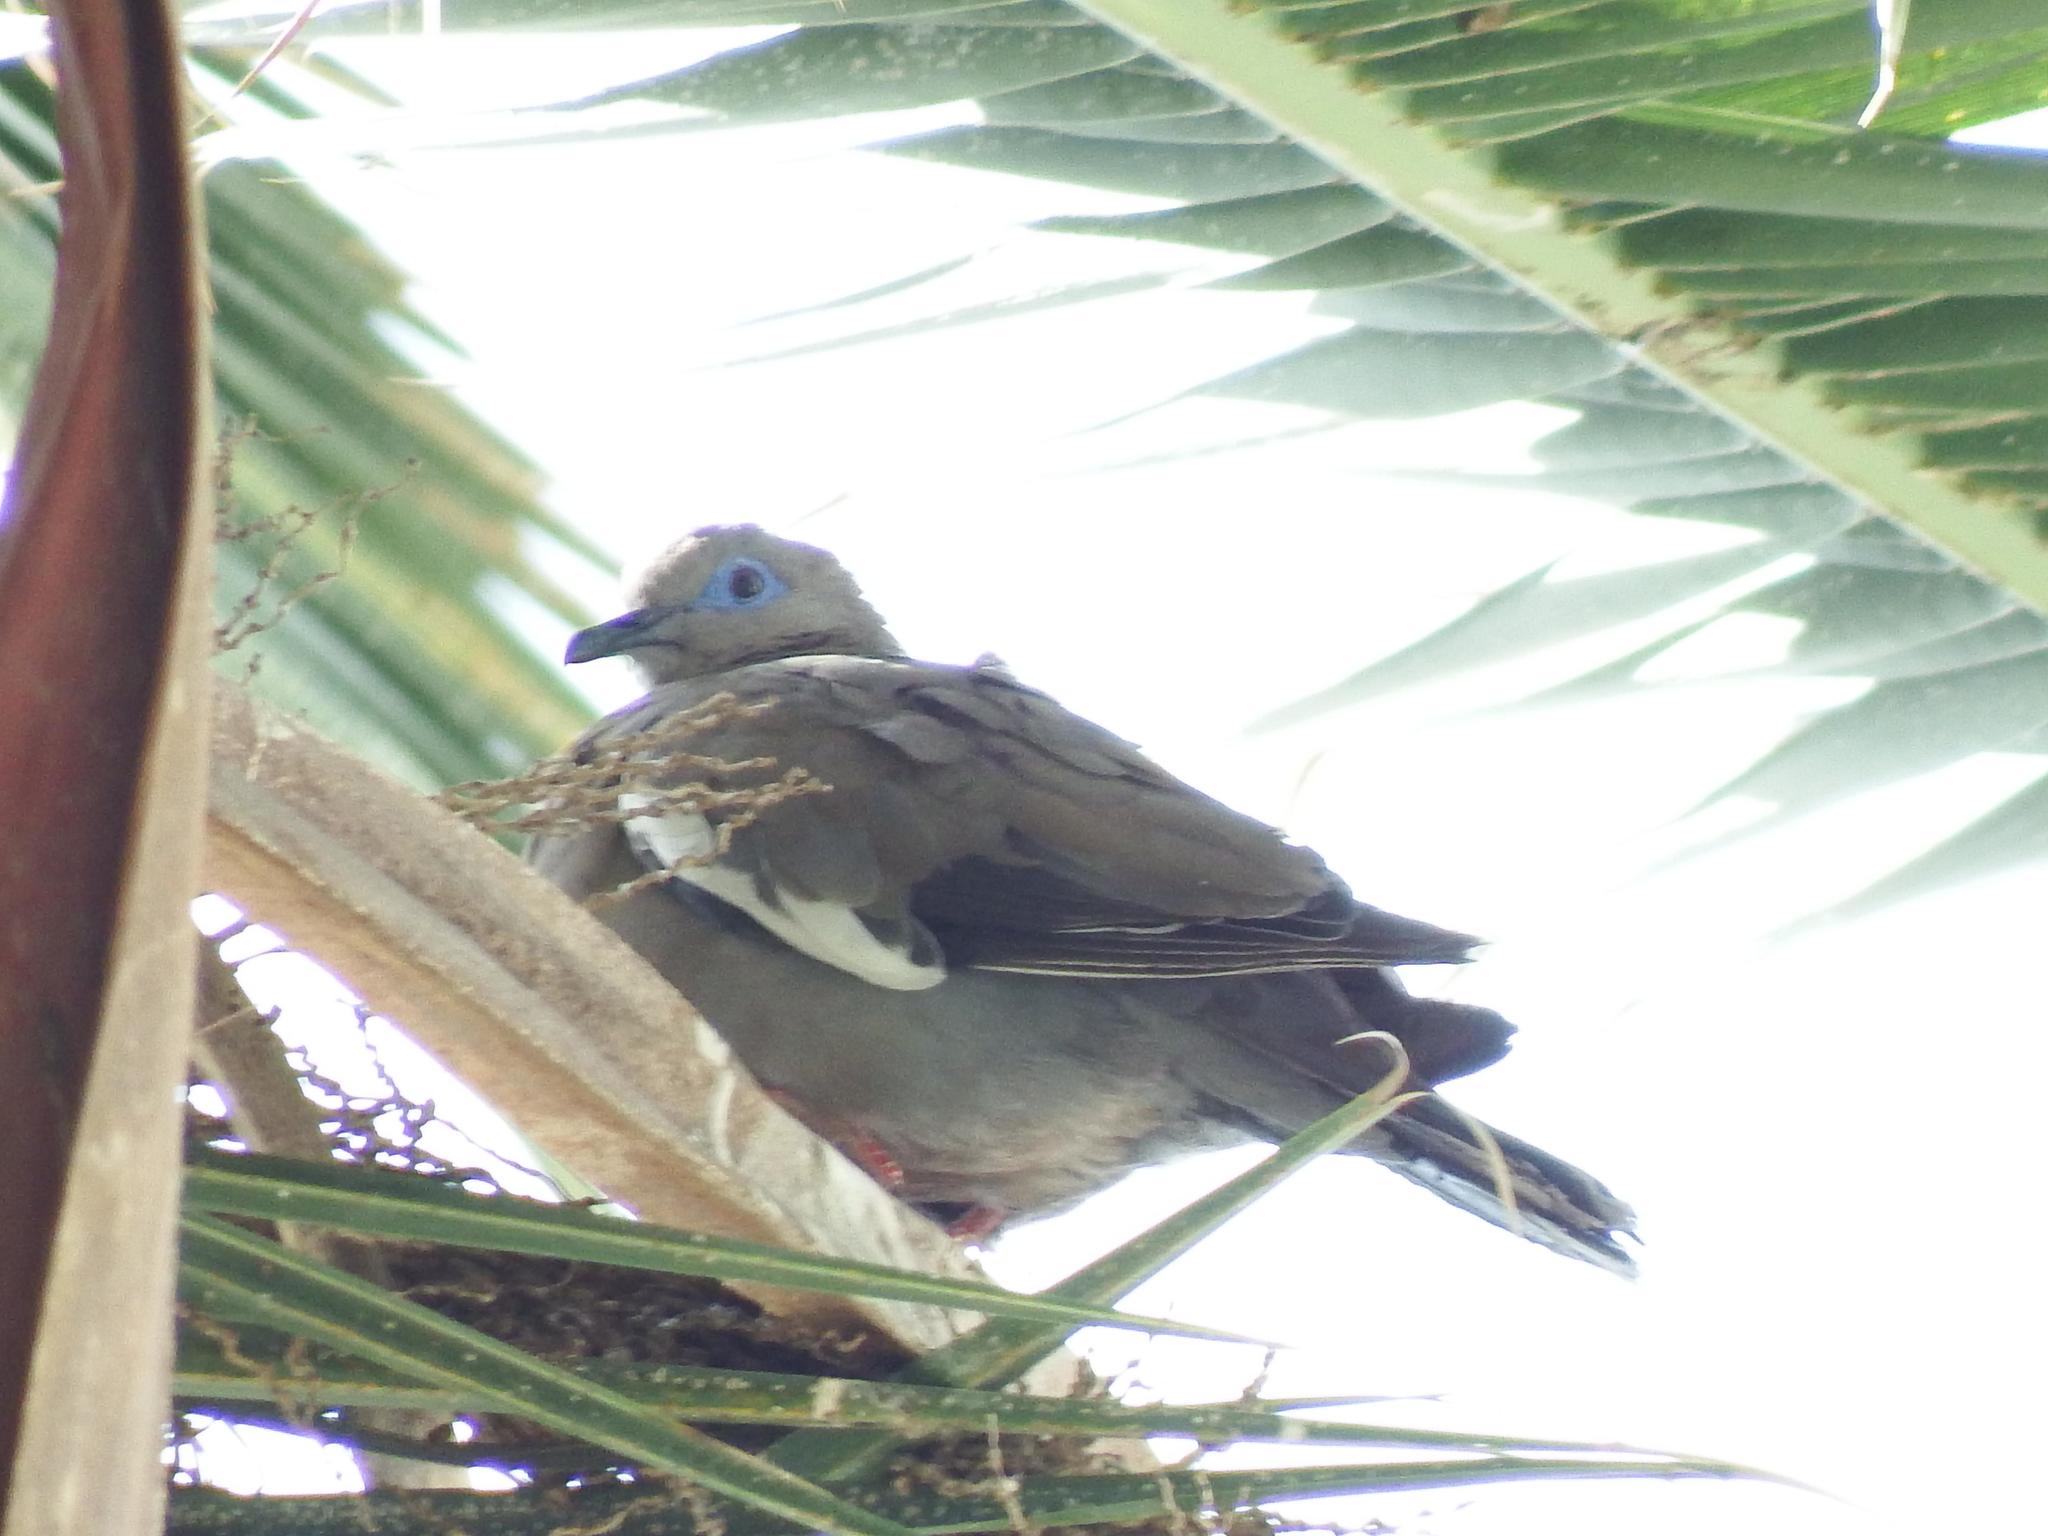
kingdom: Animalia
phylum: Chordata
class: Aves
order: Columbiformes
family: Columbidae
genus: Zenaida
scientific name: Zenaida meloda
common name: West peruvian dove
